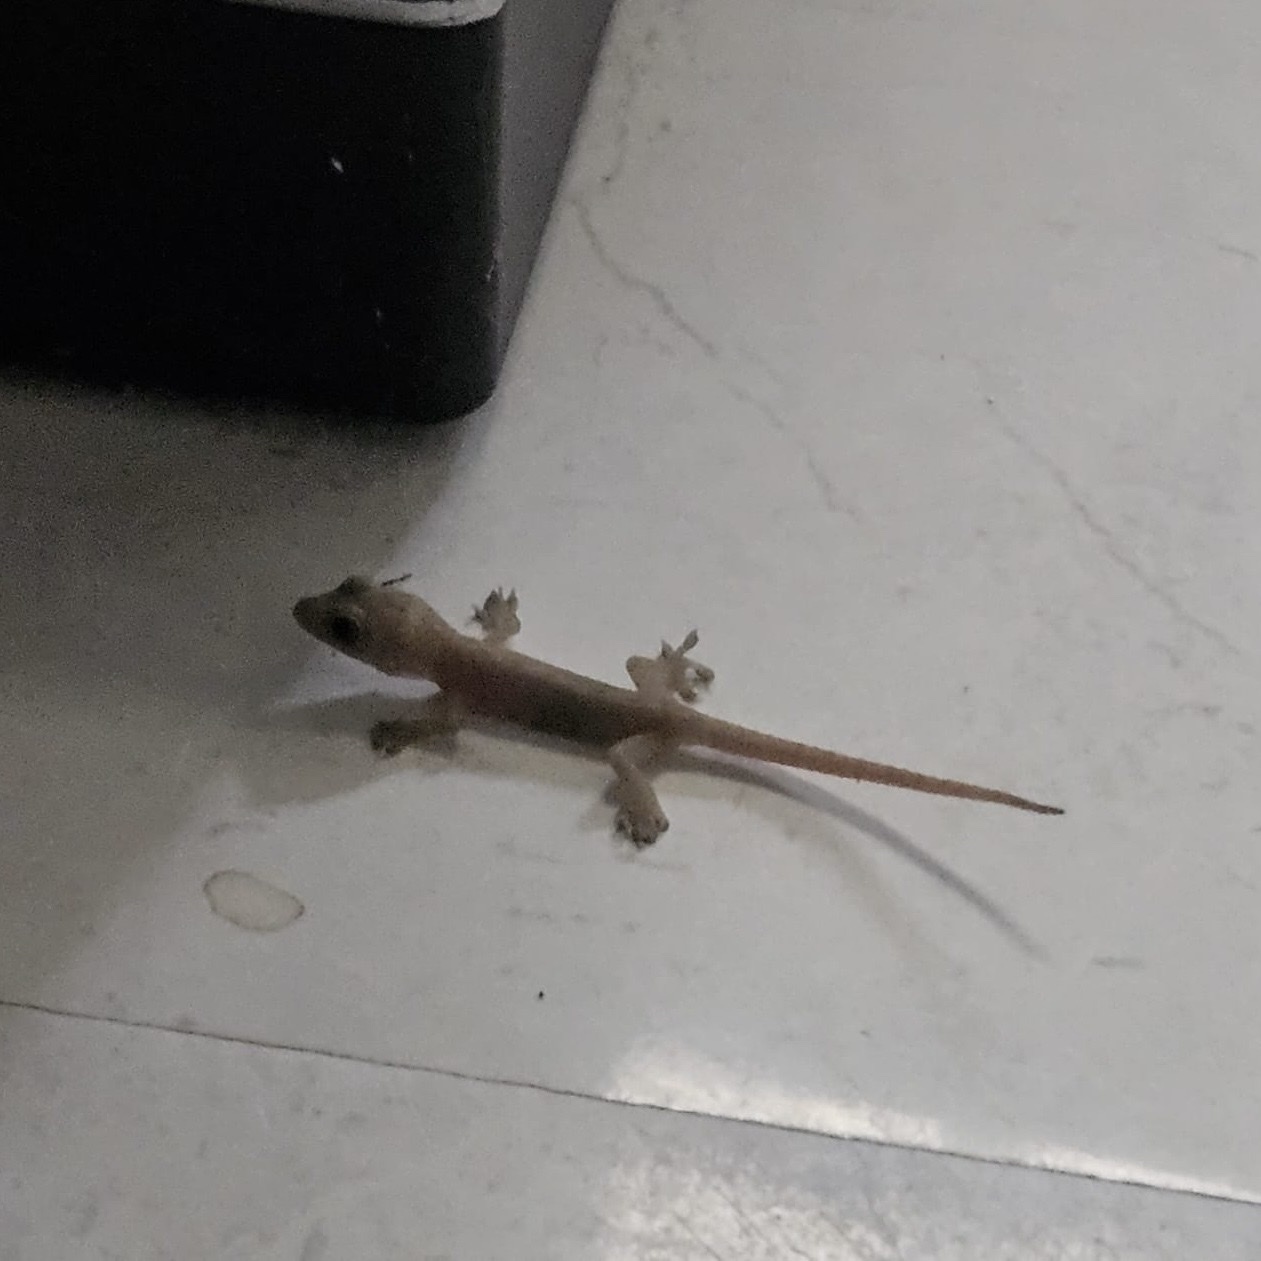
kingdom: Animalia
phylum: Chordata
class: Squamata
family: Gekkonidae
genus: Hemidactylus
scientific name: Hemidactylus frenatus
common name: Common house gecko
